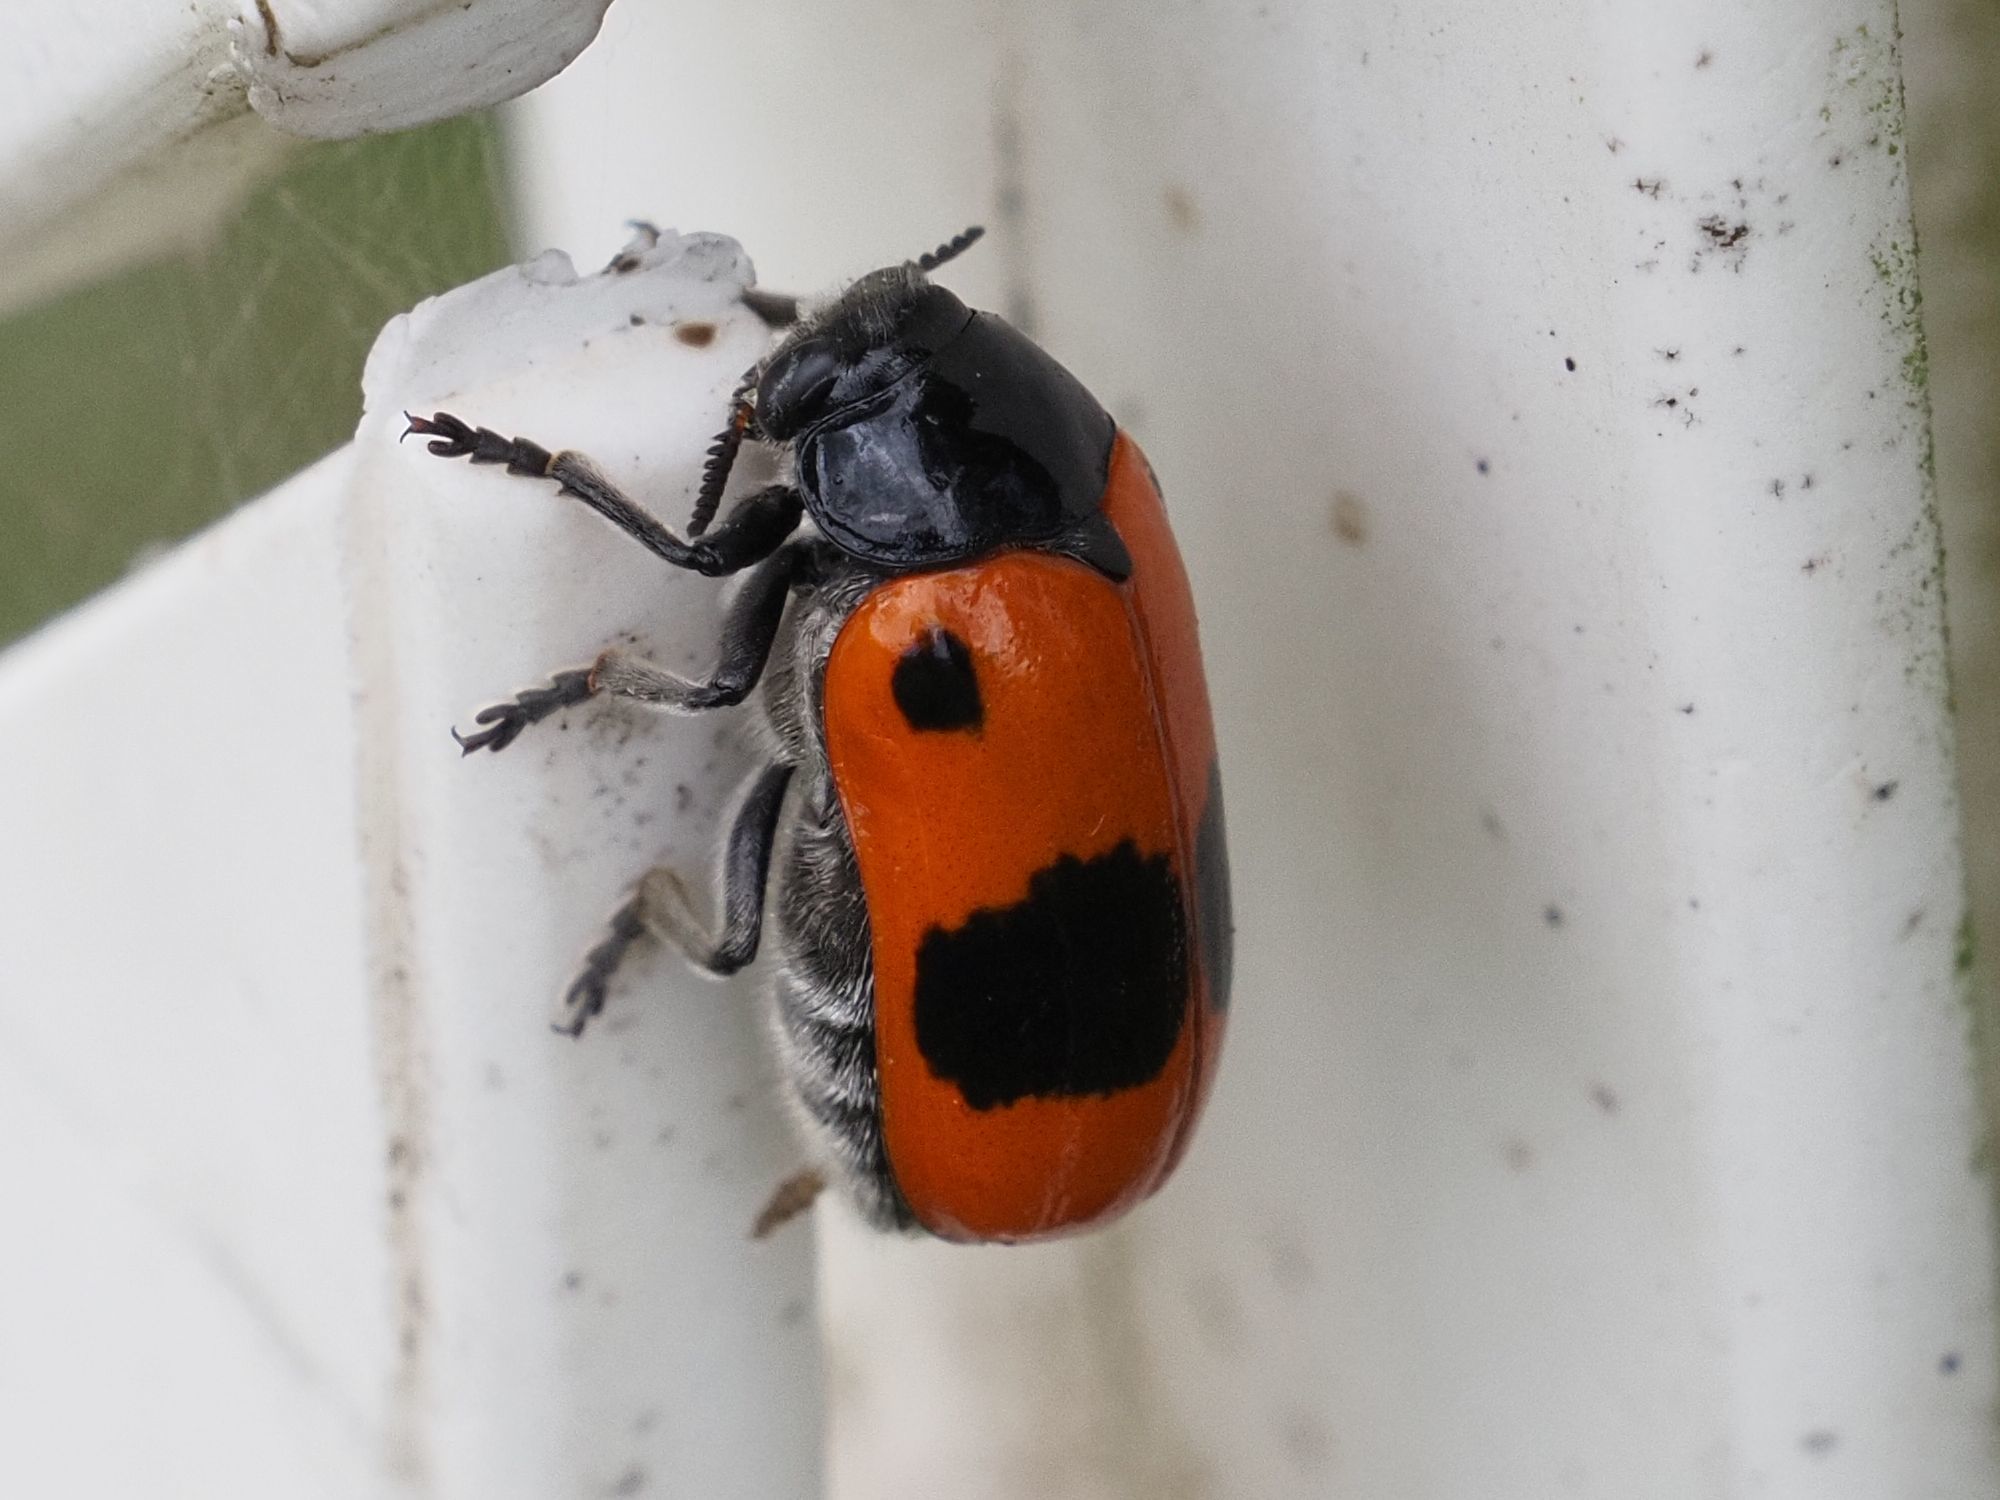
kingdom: Animalia
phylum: Arthropoda
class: Insecta
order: Coleoptera
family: Chrysomelidae
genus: Clytra
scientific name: Clytra laeviuscula
